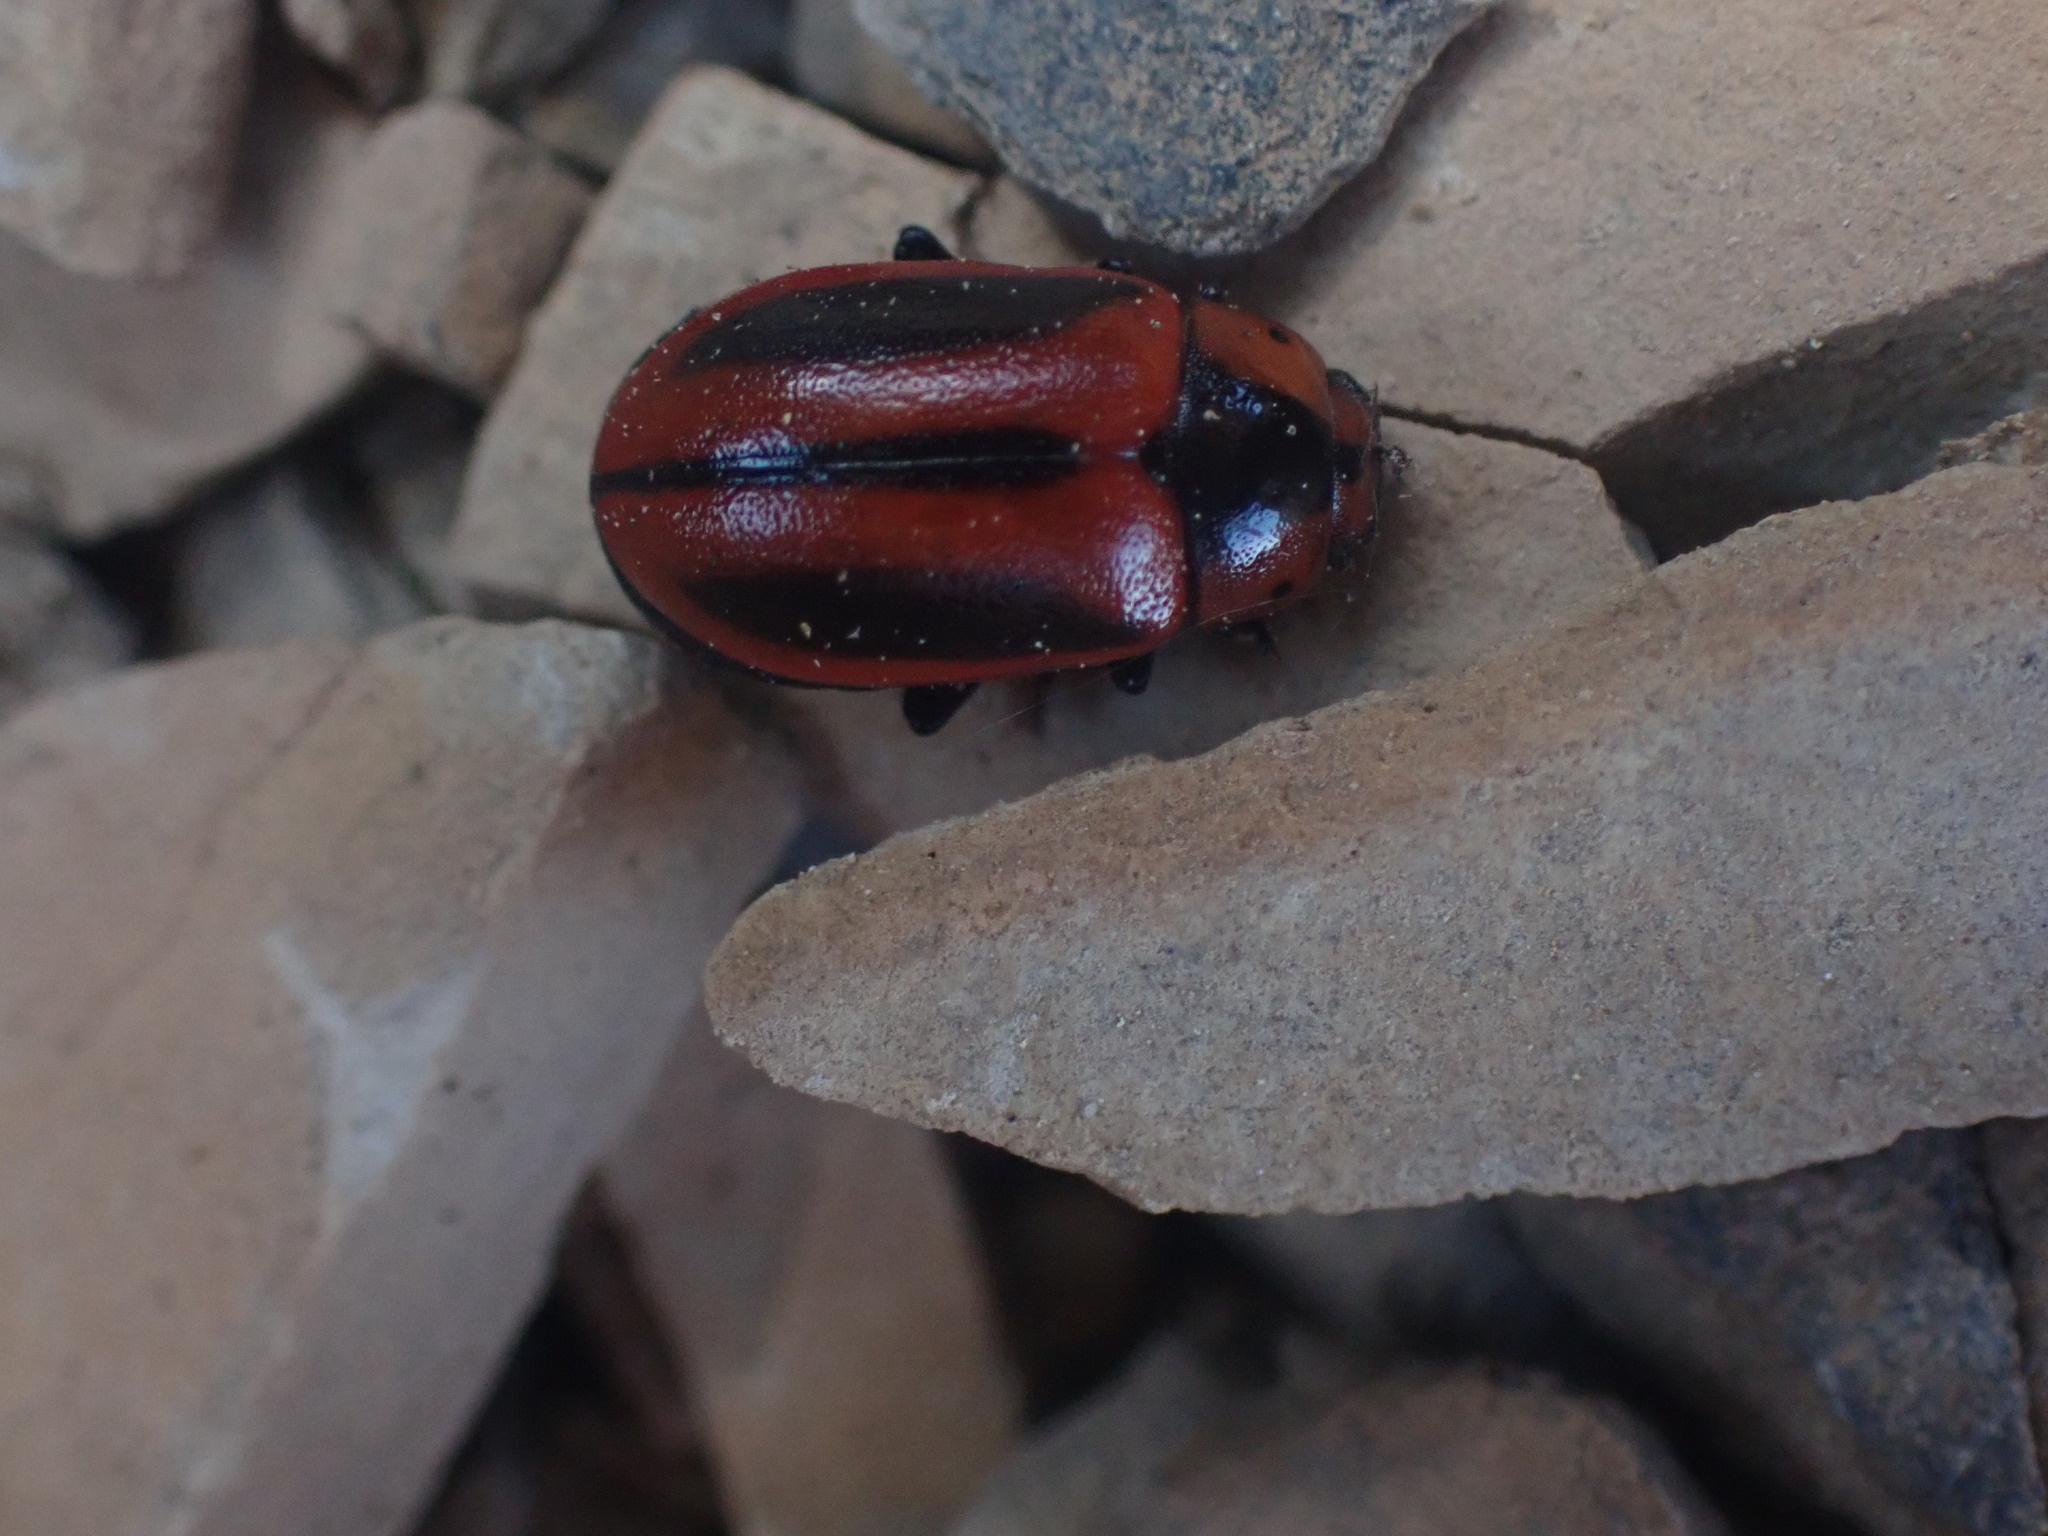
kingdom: Animalia
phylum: Arthropoda
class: Insecta
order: Coleoptera
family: Chrysomelidae
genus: Entomoscelis
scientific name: Entomoscelis americana
